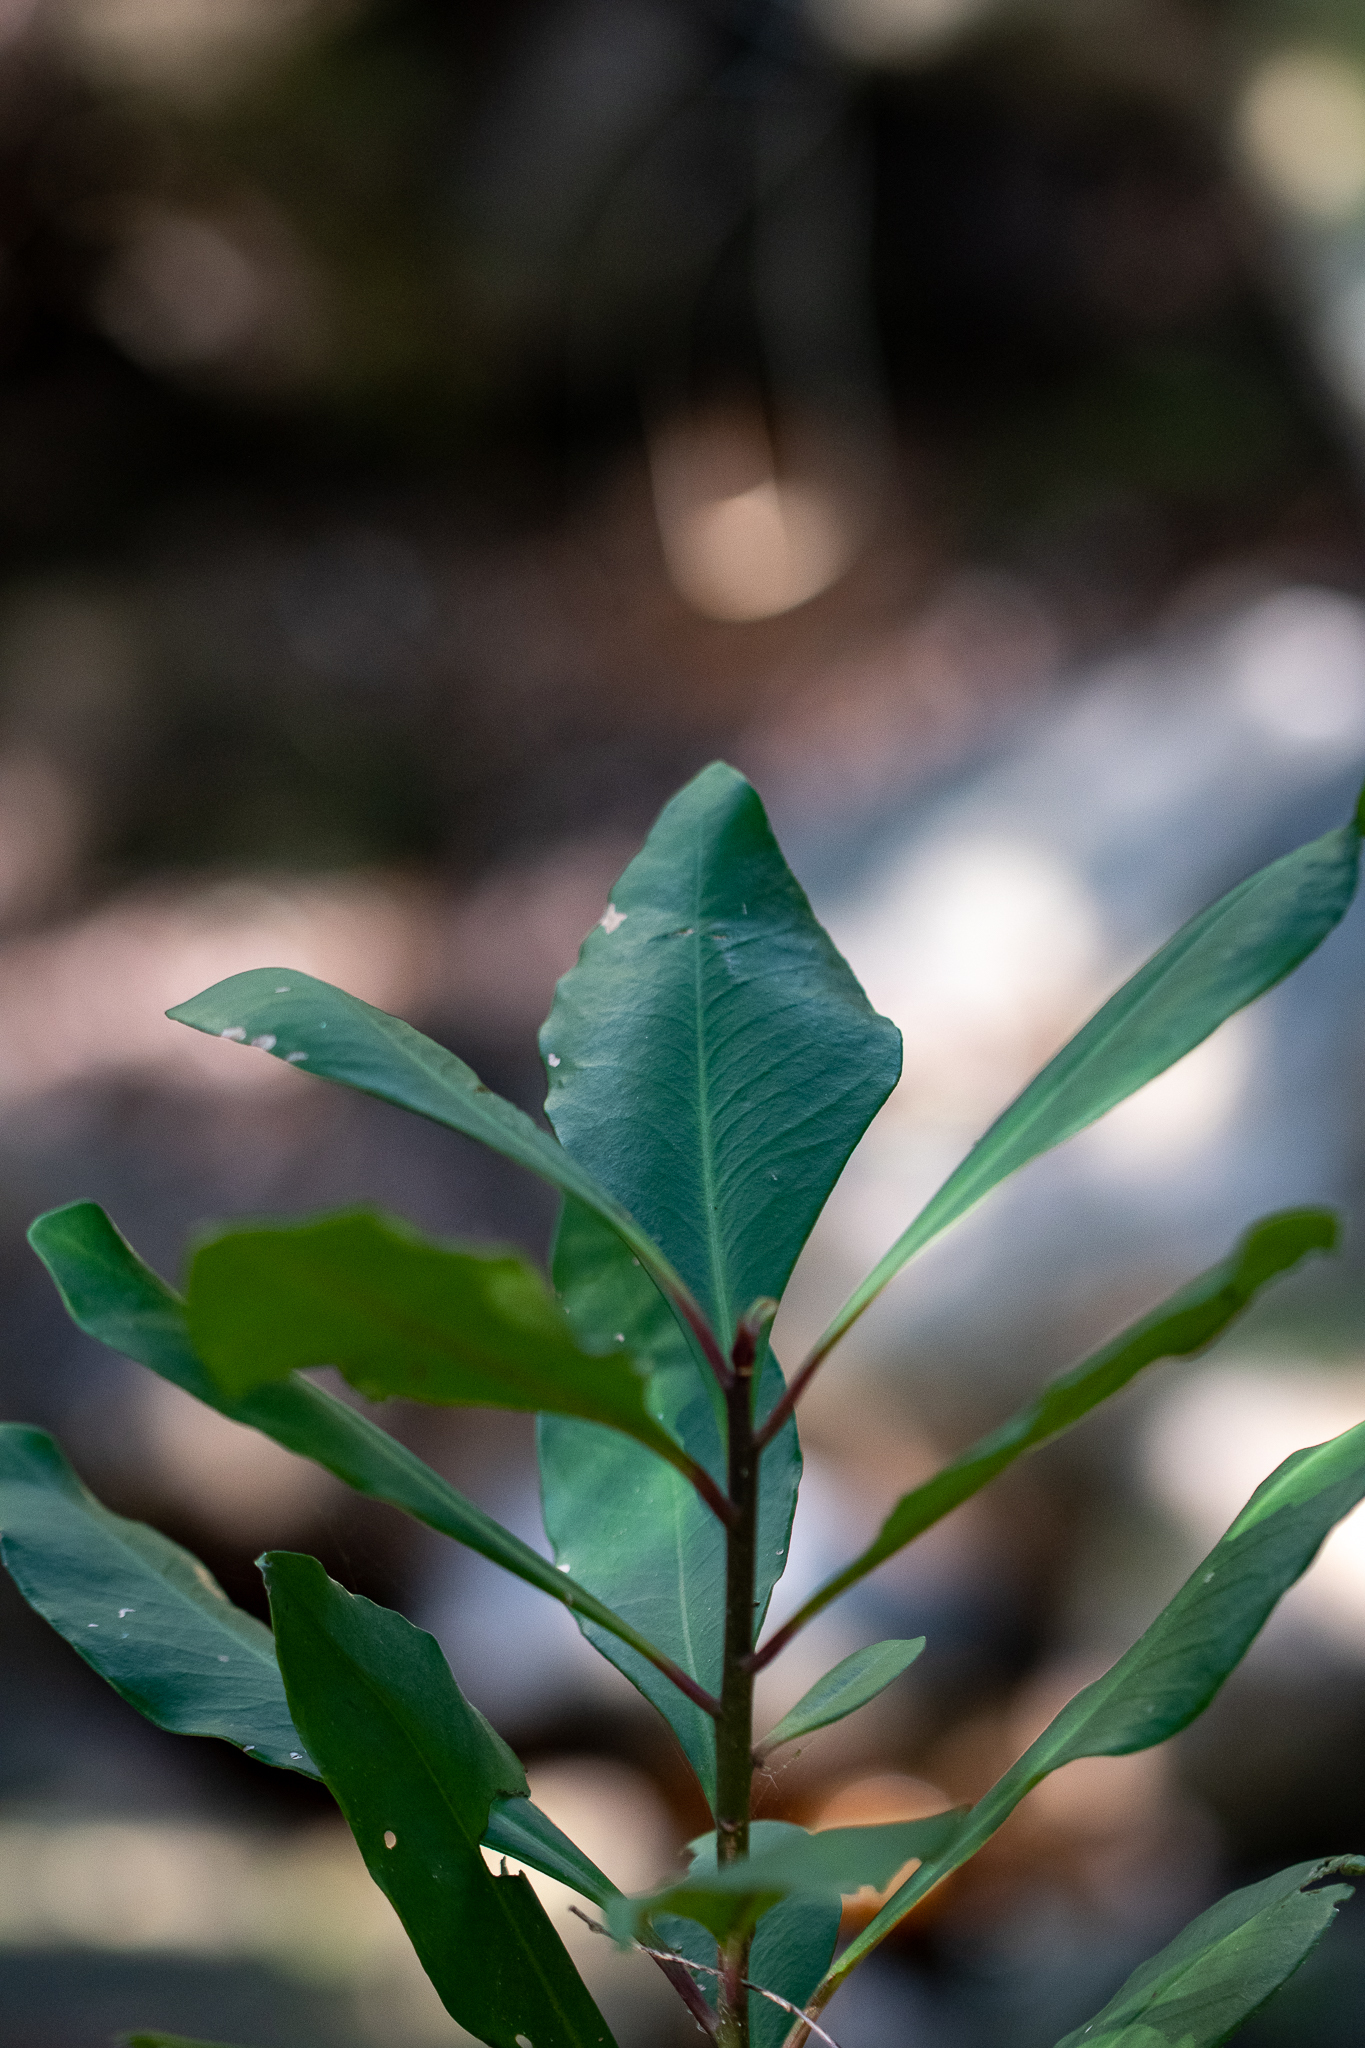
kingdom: Plantae
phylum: Tracheophyta
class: Magnoliopsida
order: Ericales
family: Primulaceae
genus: Myrsine
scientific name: Myrsine melanophloeos
